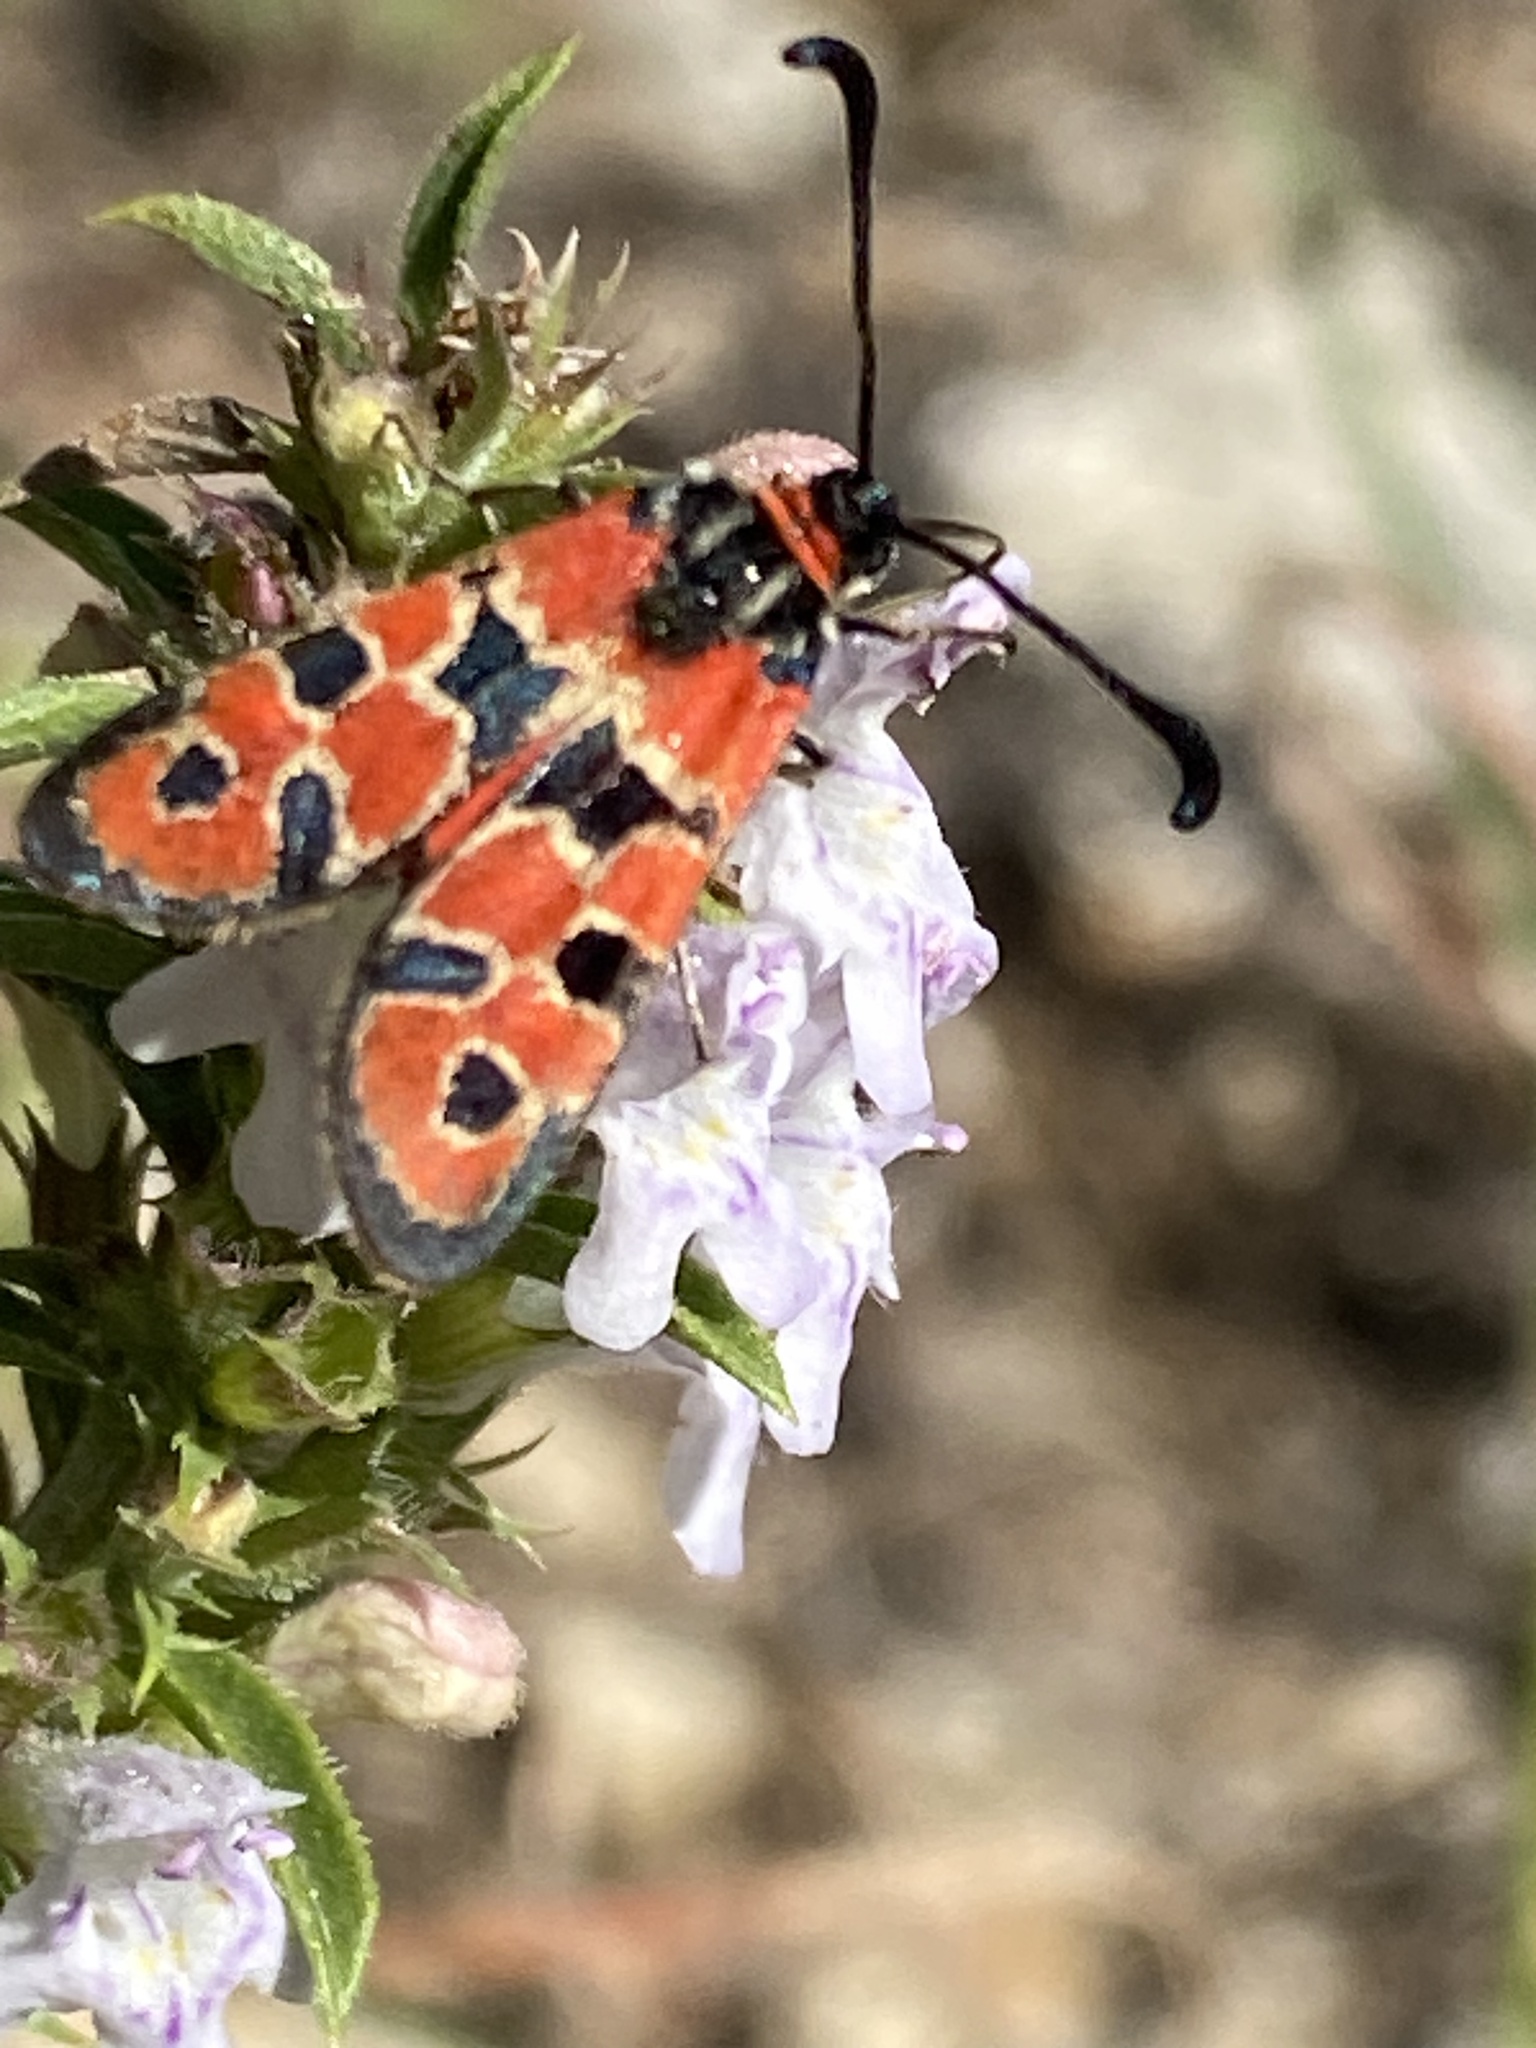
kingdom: Animalia
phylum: Arthropoda
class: Insecta
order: Lepidoptera
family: Zygaenidae
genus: Zygaena
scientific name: Zygaena fausta
